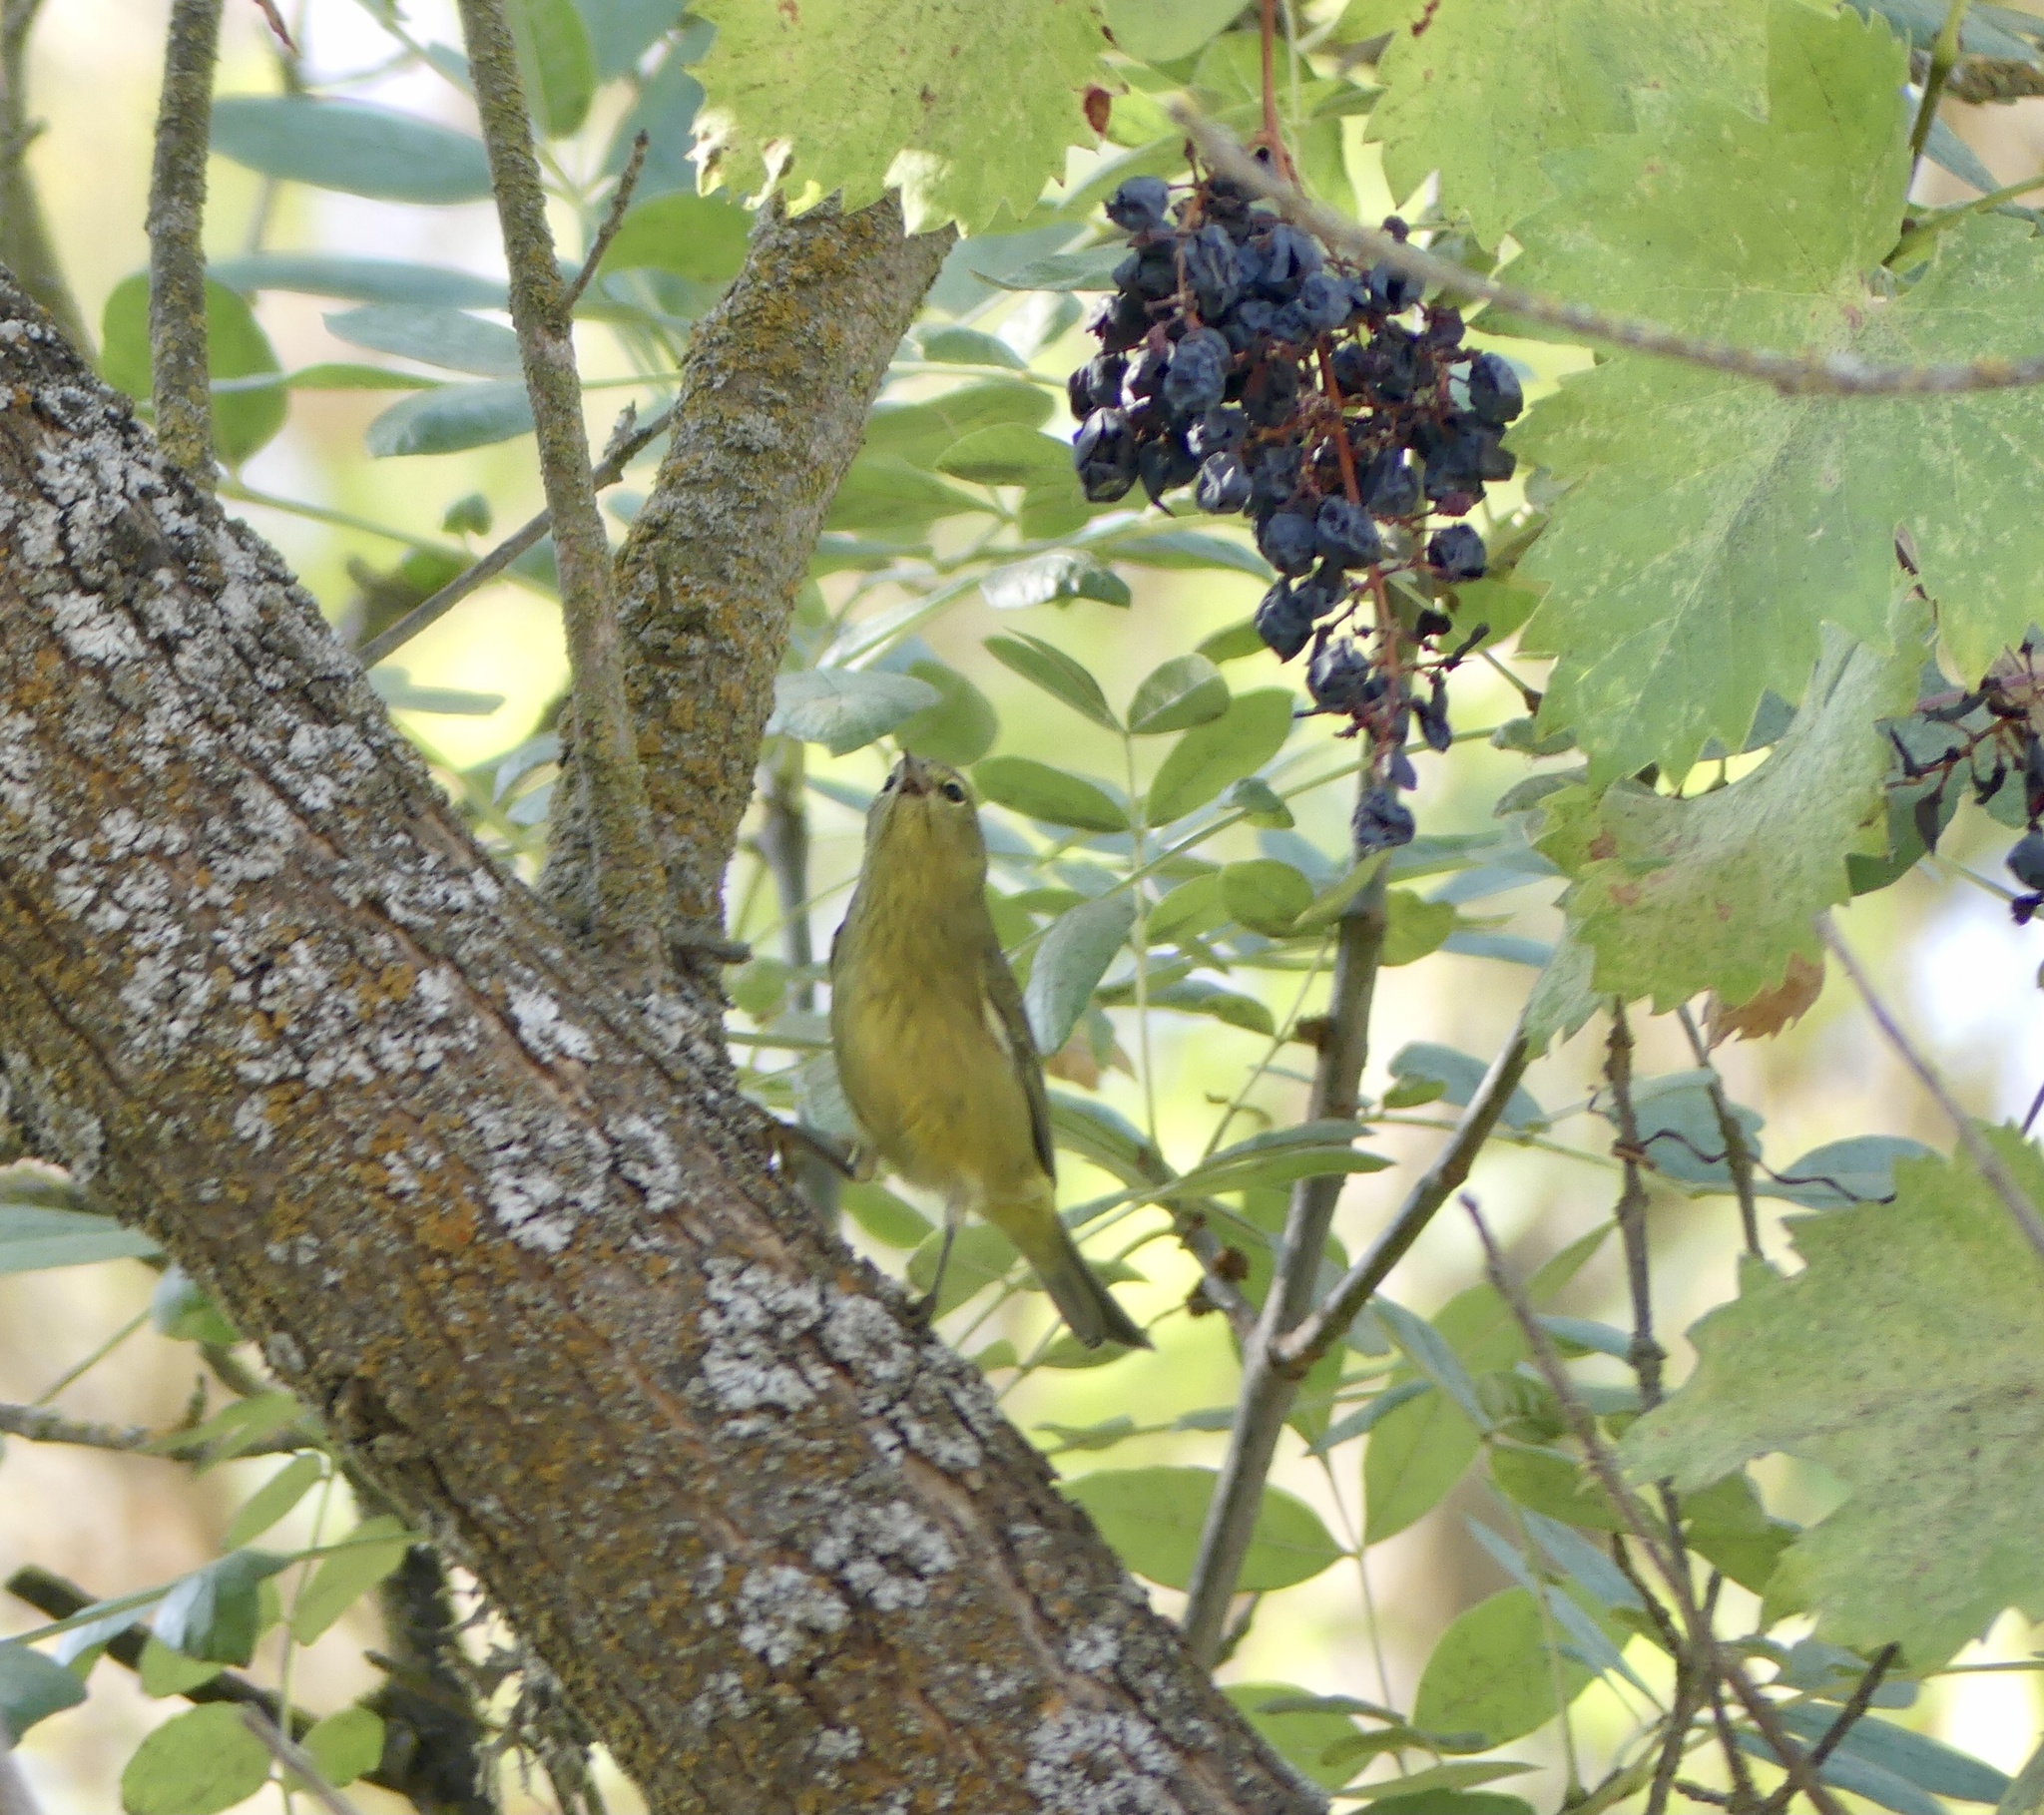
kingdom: Animalia
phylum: Chordata
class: Aves
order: Passeriformes
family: Parulidae
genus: Leiothlypis
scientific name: Leiothlypis celata
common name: Orange-crowned warbler
